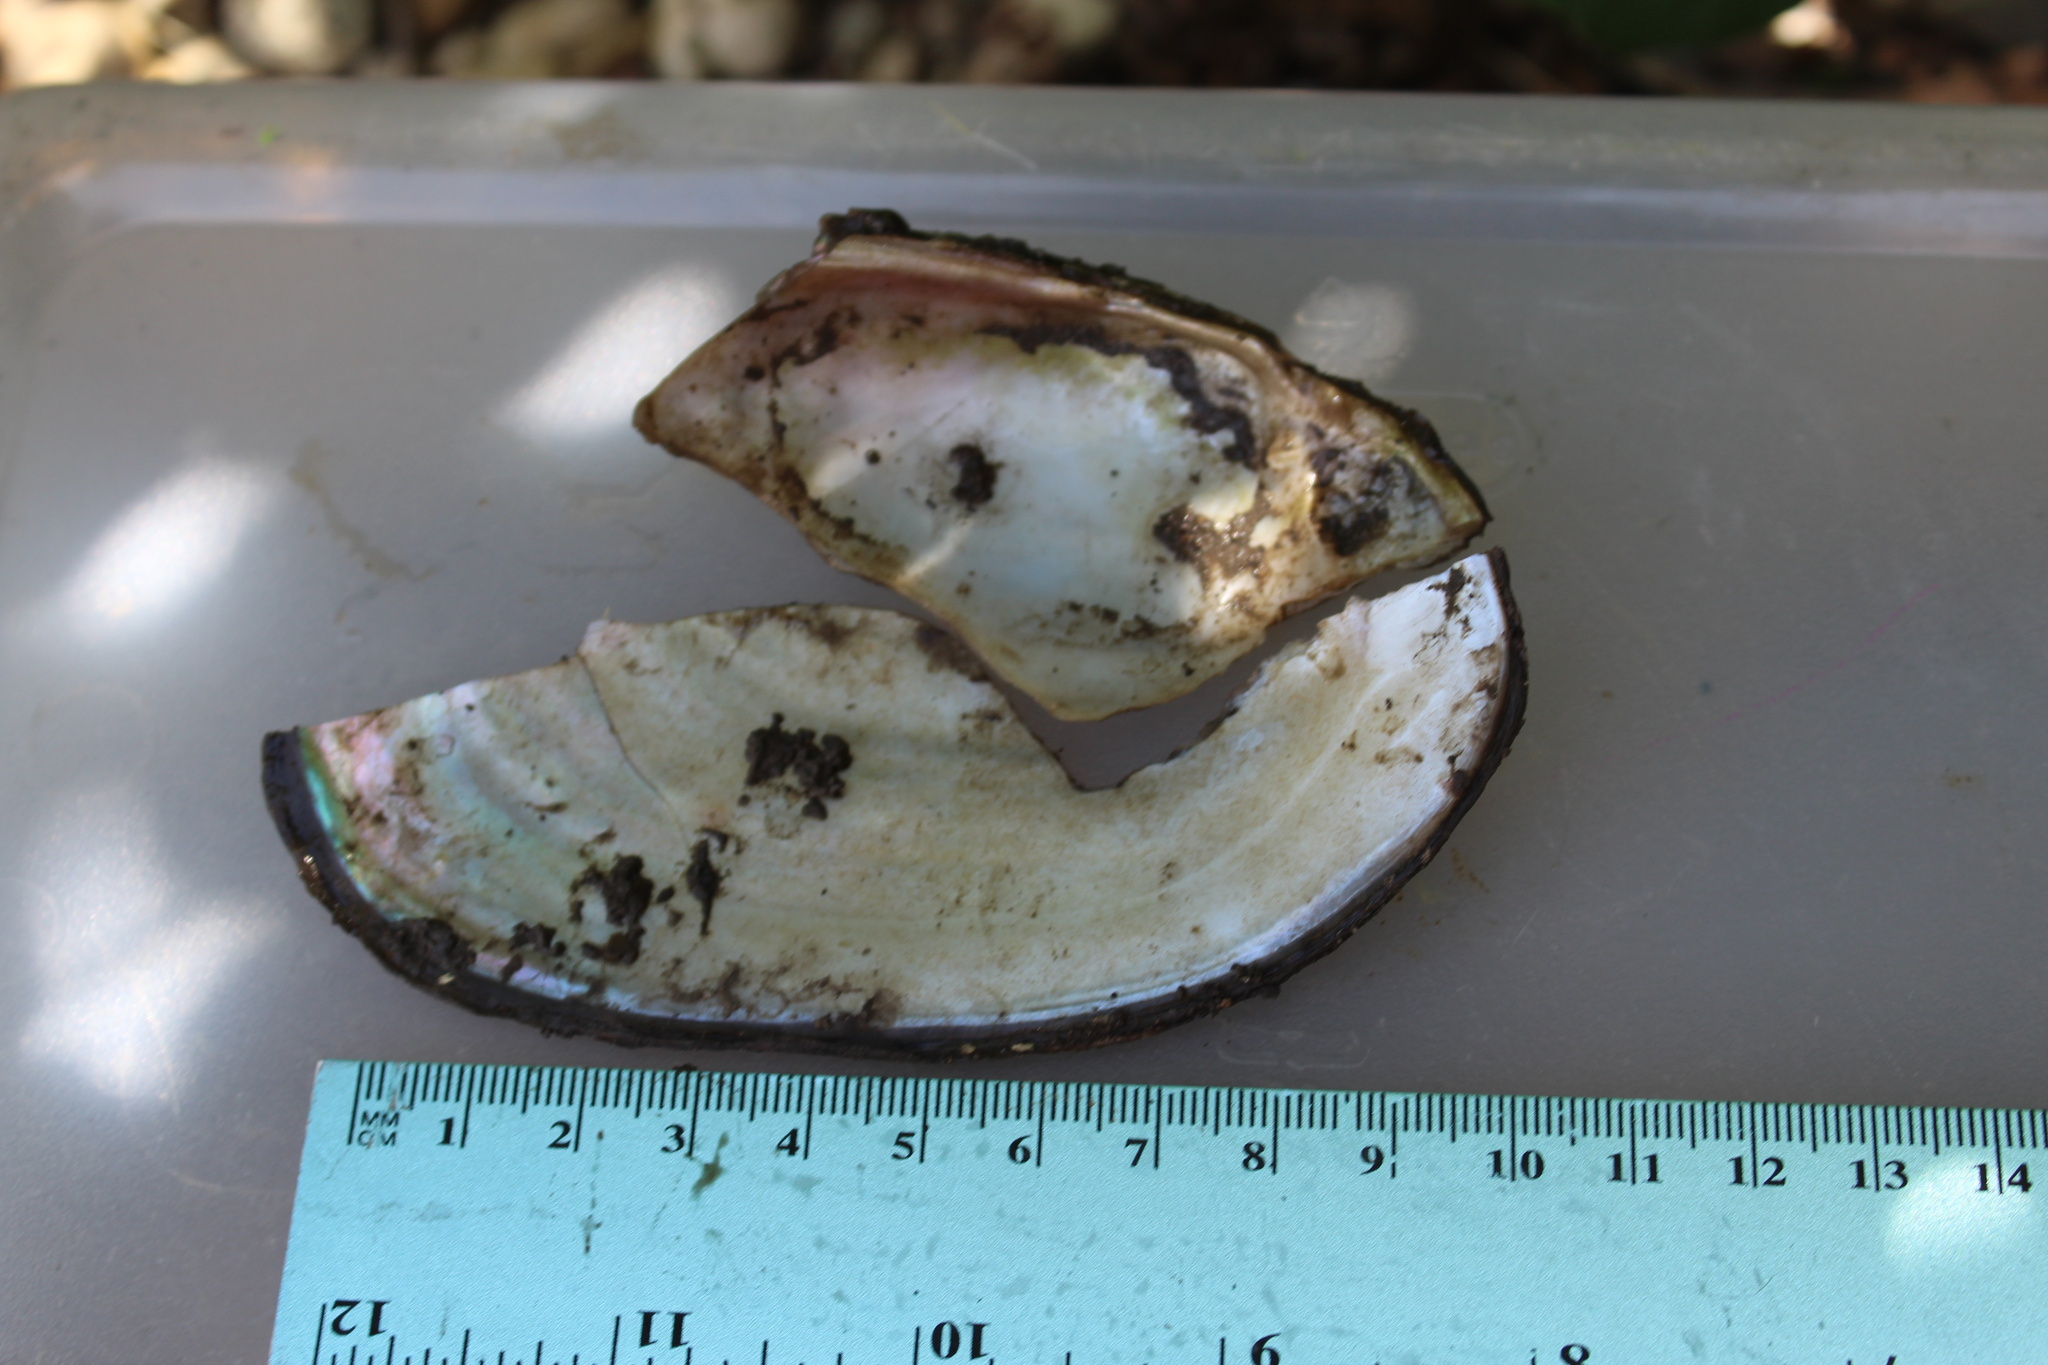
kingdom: Animalia
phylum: Mollusca
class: Bivalvia
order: Unionida
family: Unionidae
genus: Potamilus
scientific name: Potamilus fragilis
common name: Fragile papershell
